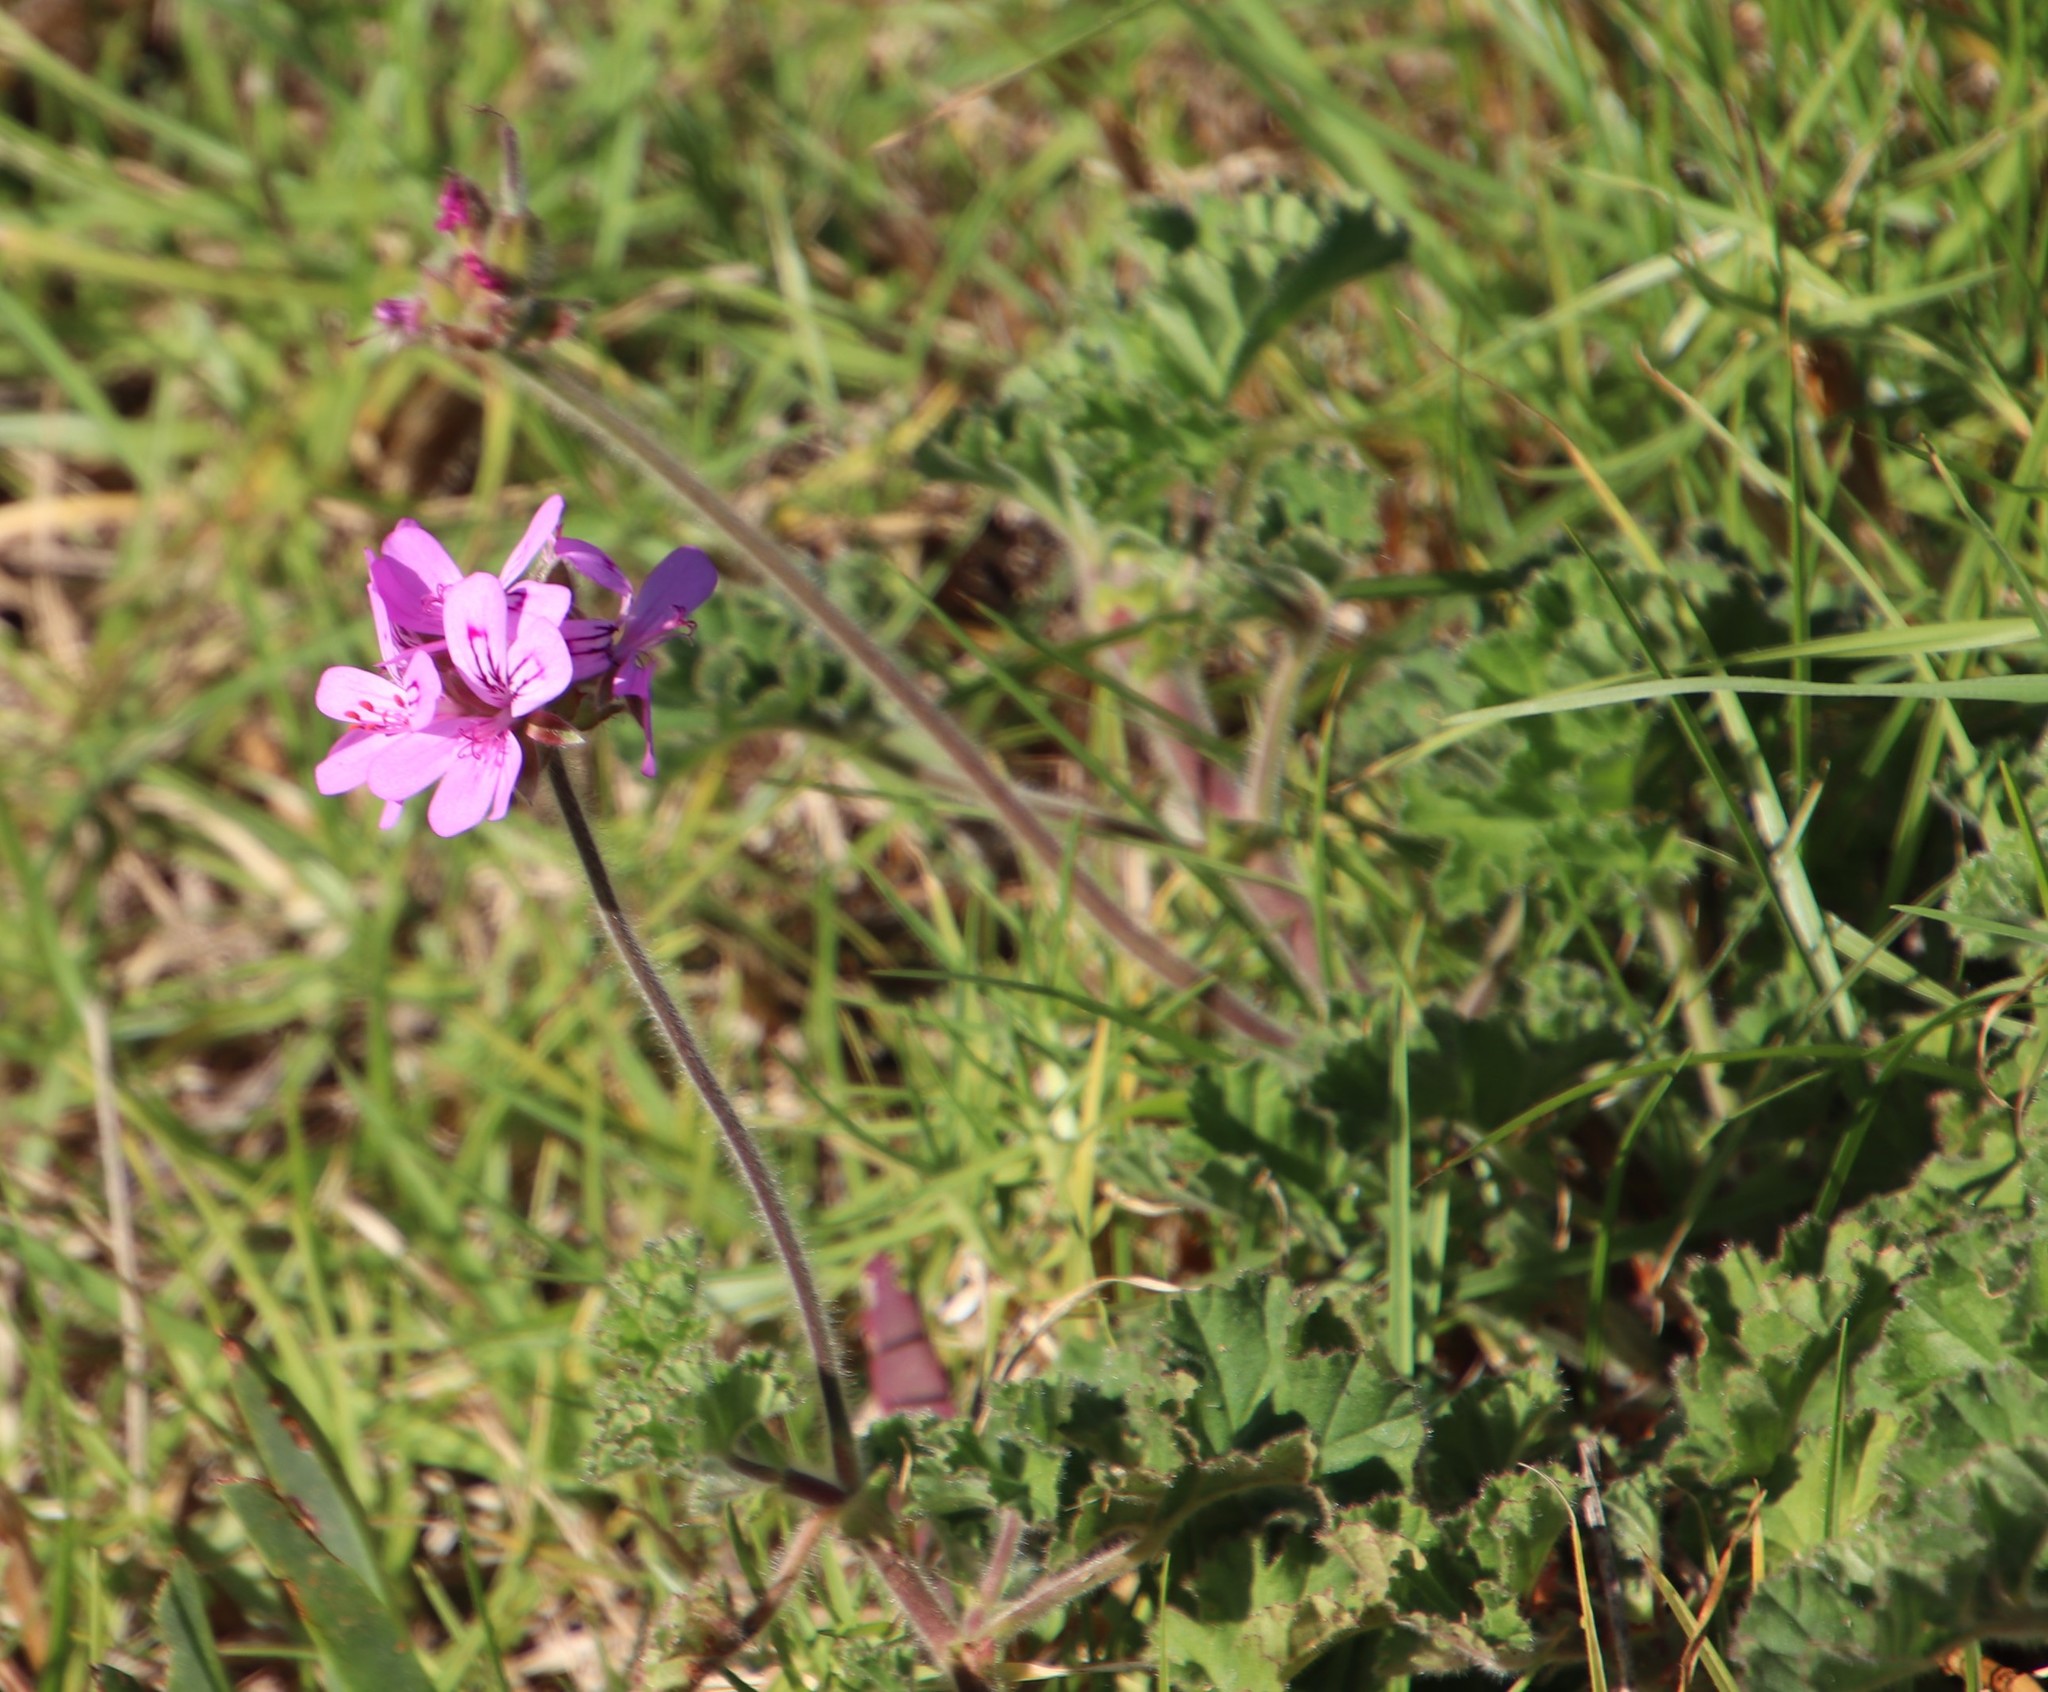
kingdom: Plantae
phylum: Tracheophyta
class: Magnoliopsida
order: Geraniales
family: Geraniaceae
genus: Pelargonium
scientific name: Pelargonium capitatum
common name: Rose scented geranium
